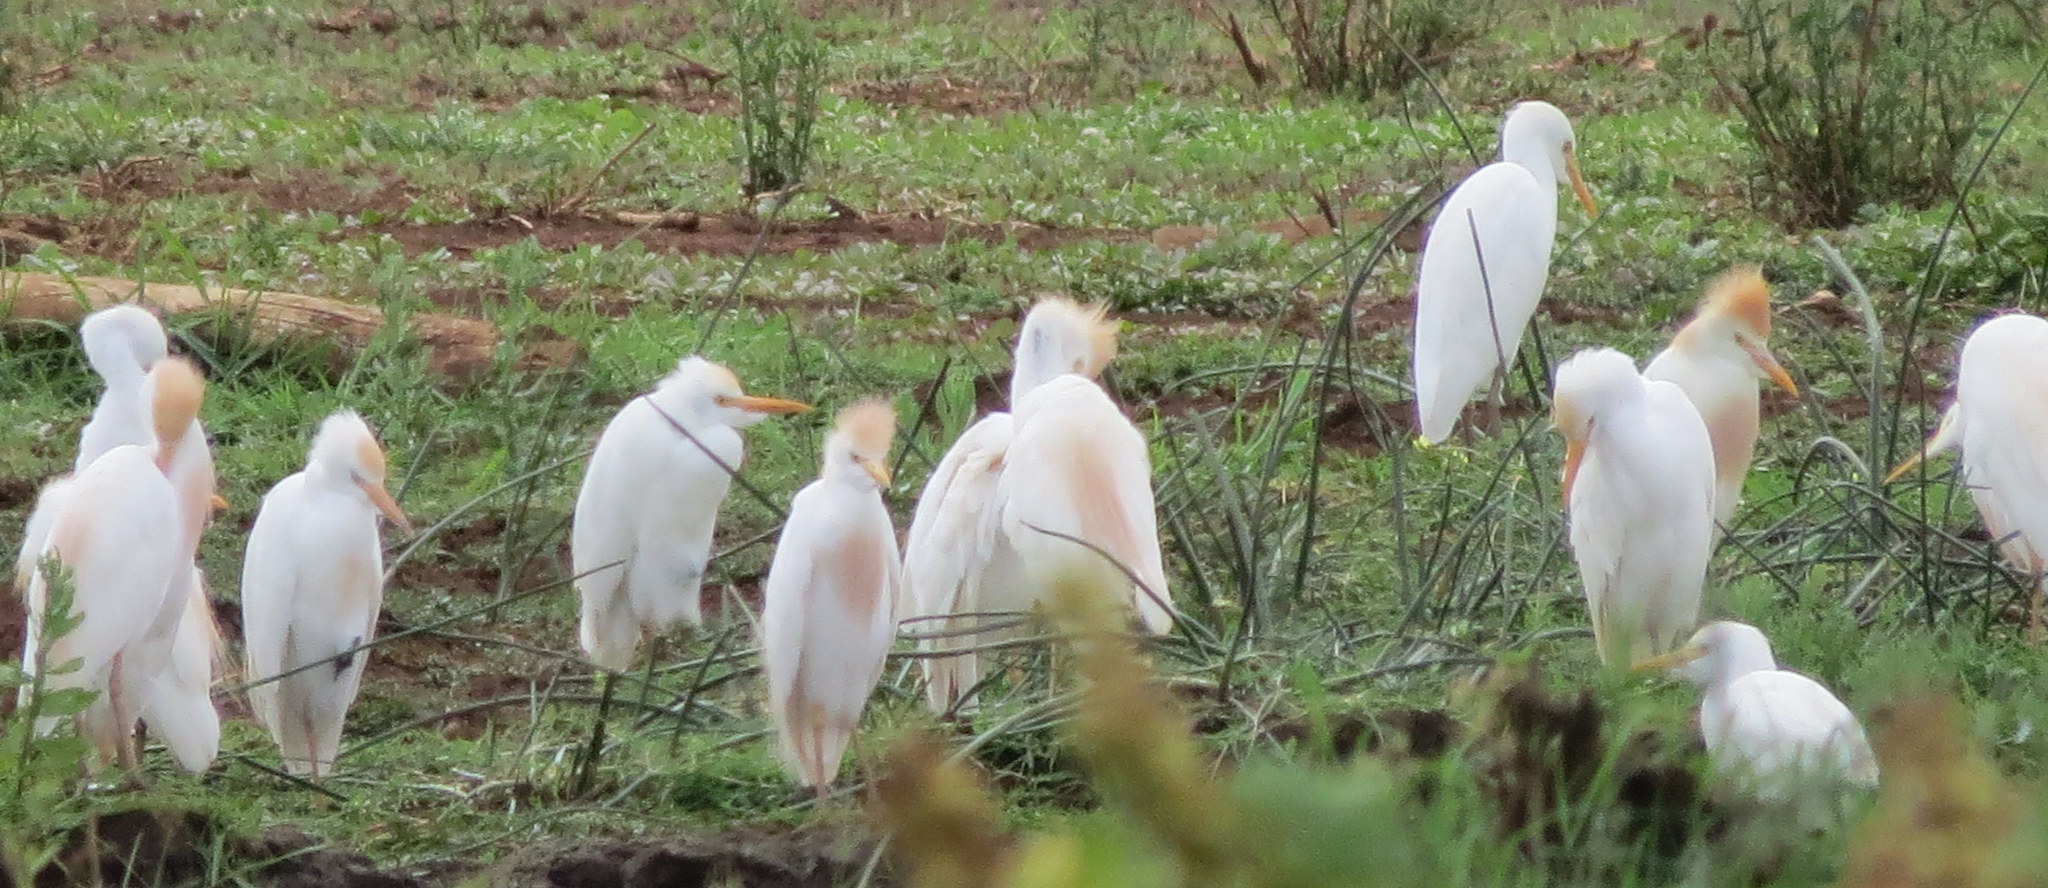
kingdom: Animalia
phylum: Chordata
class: Aves
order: Pelecaniformes
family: Ardeidae
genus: Bubulcus
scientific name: Bubulcus ibis
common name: Cattle egret
